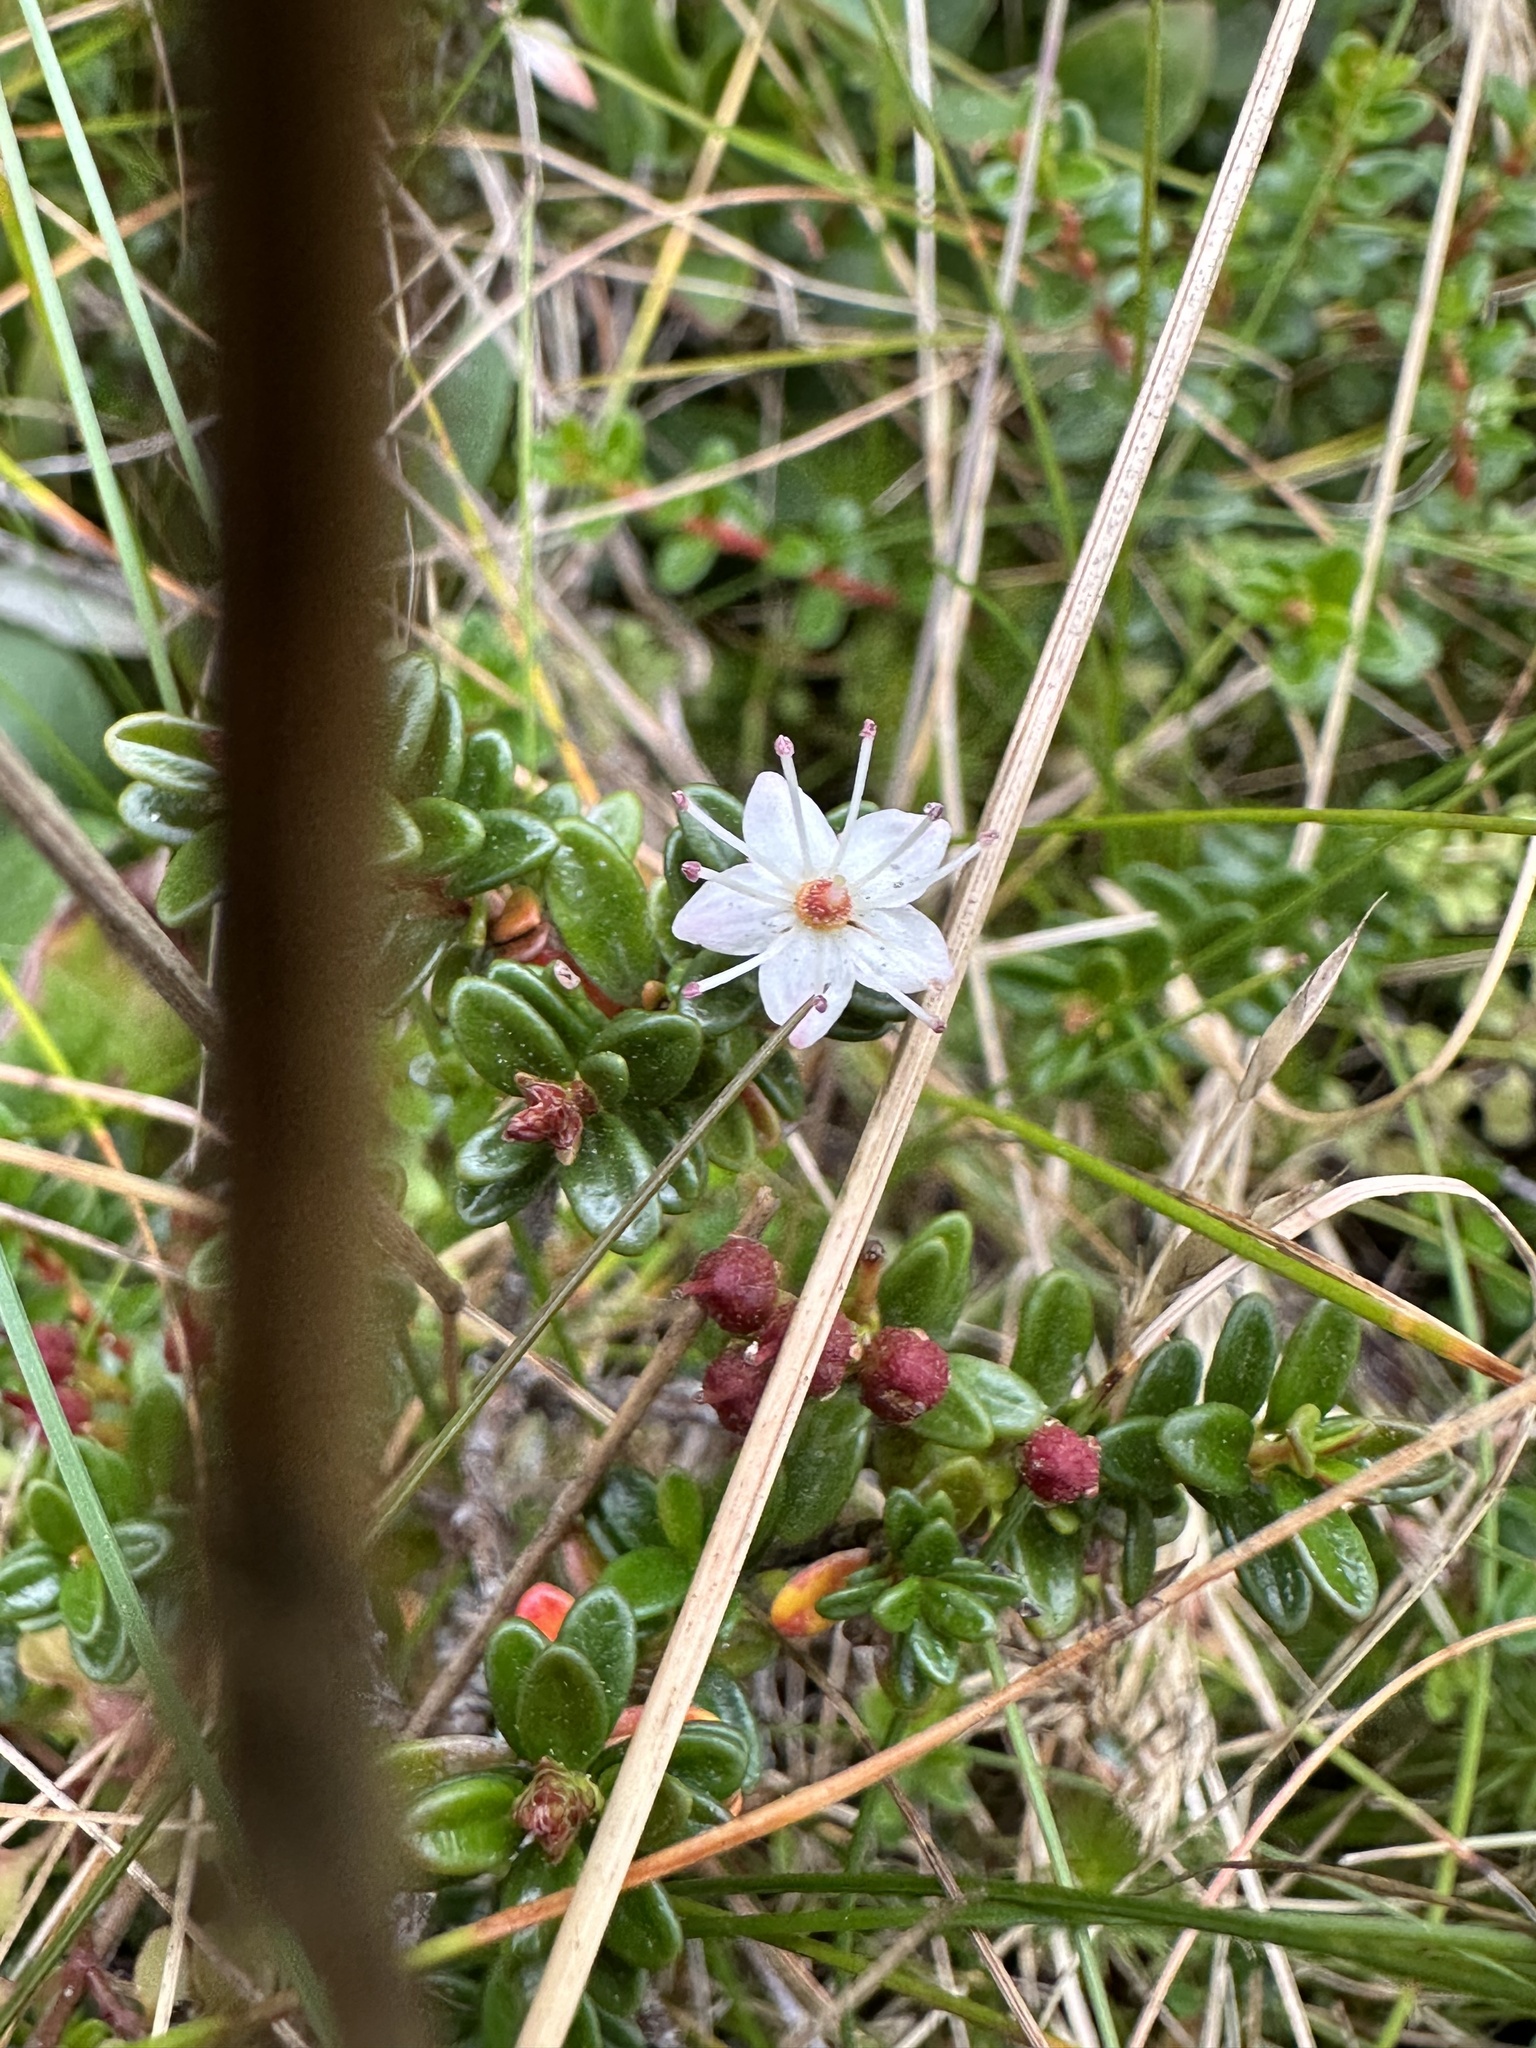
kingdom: Plantae
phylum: Tracheophyta
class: Magnoliopsida
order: Ericales
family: Ericaceae
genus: Kalmia
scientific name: Kalmia buxifolia
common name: Sandmyrtle
